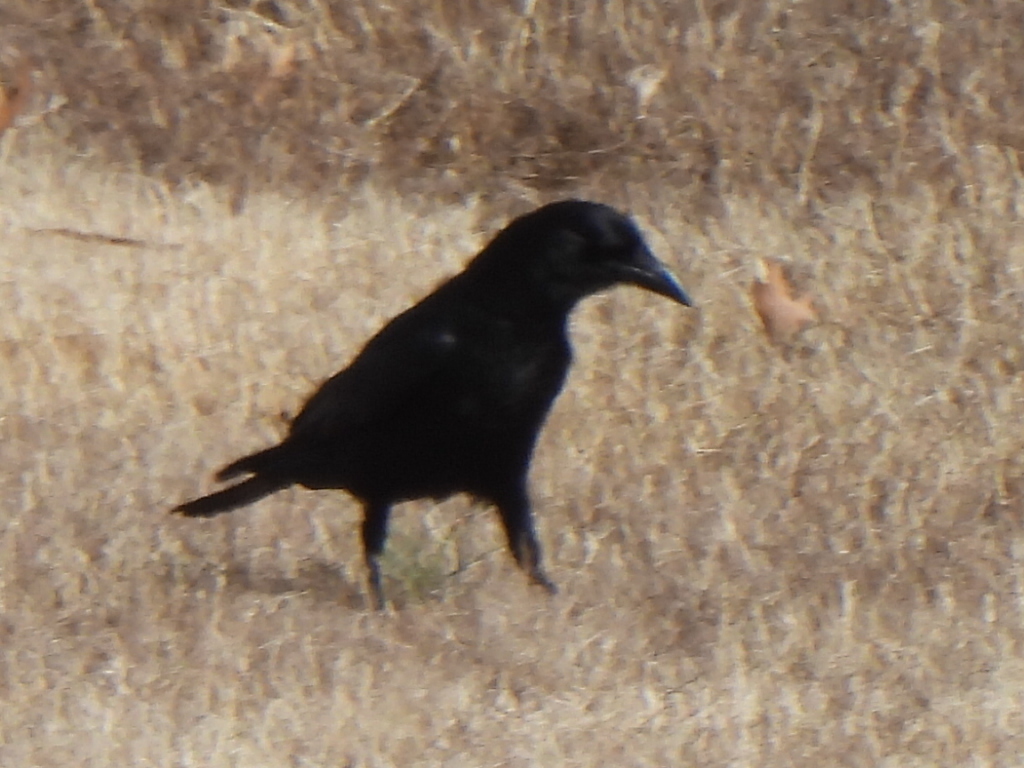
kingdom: Animalia
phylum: Chordata
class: Aves
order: Passeriformes
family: Corvidae
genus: Corvus
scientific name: Corvus brachyrhynchos
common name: American crow
